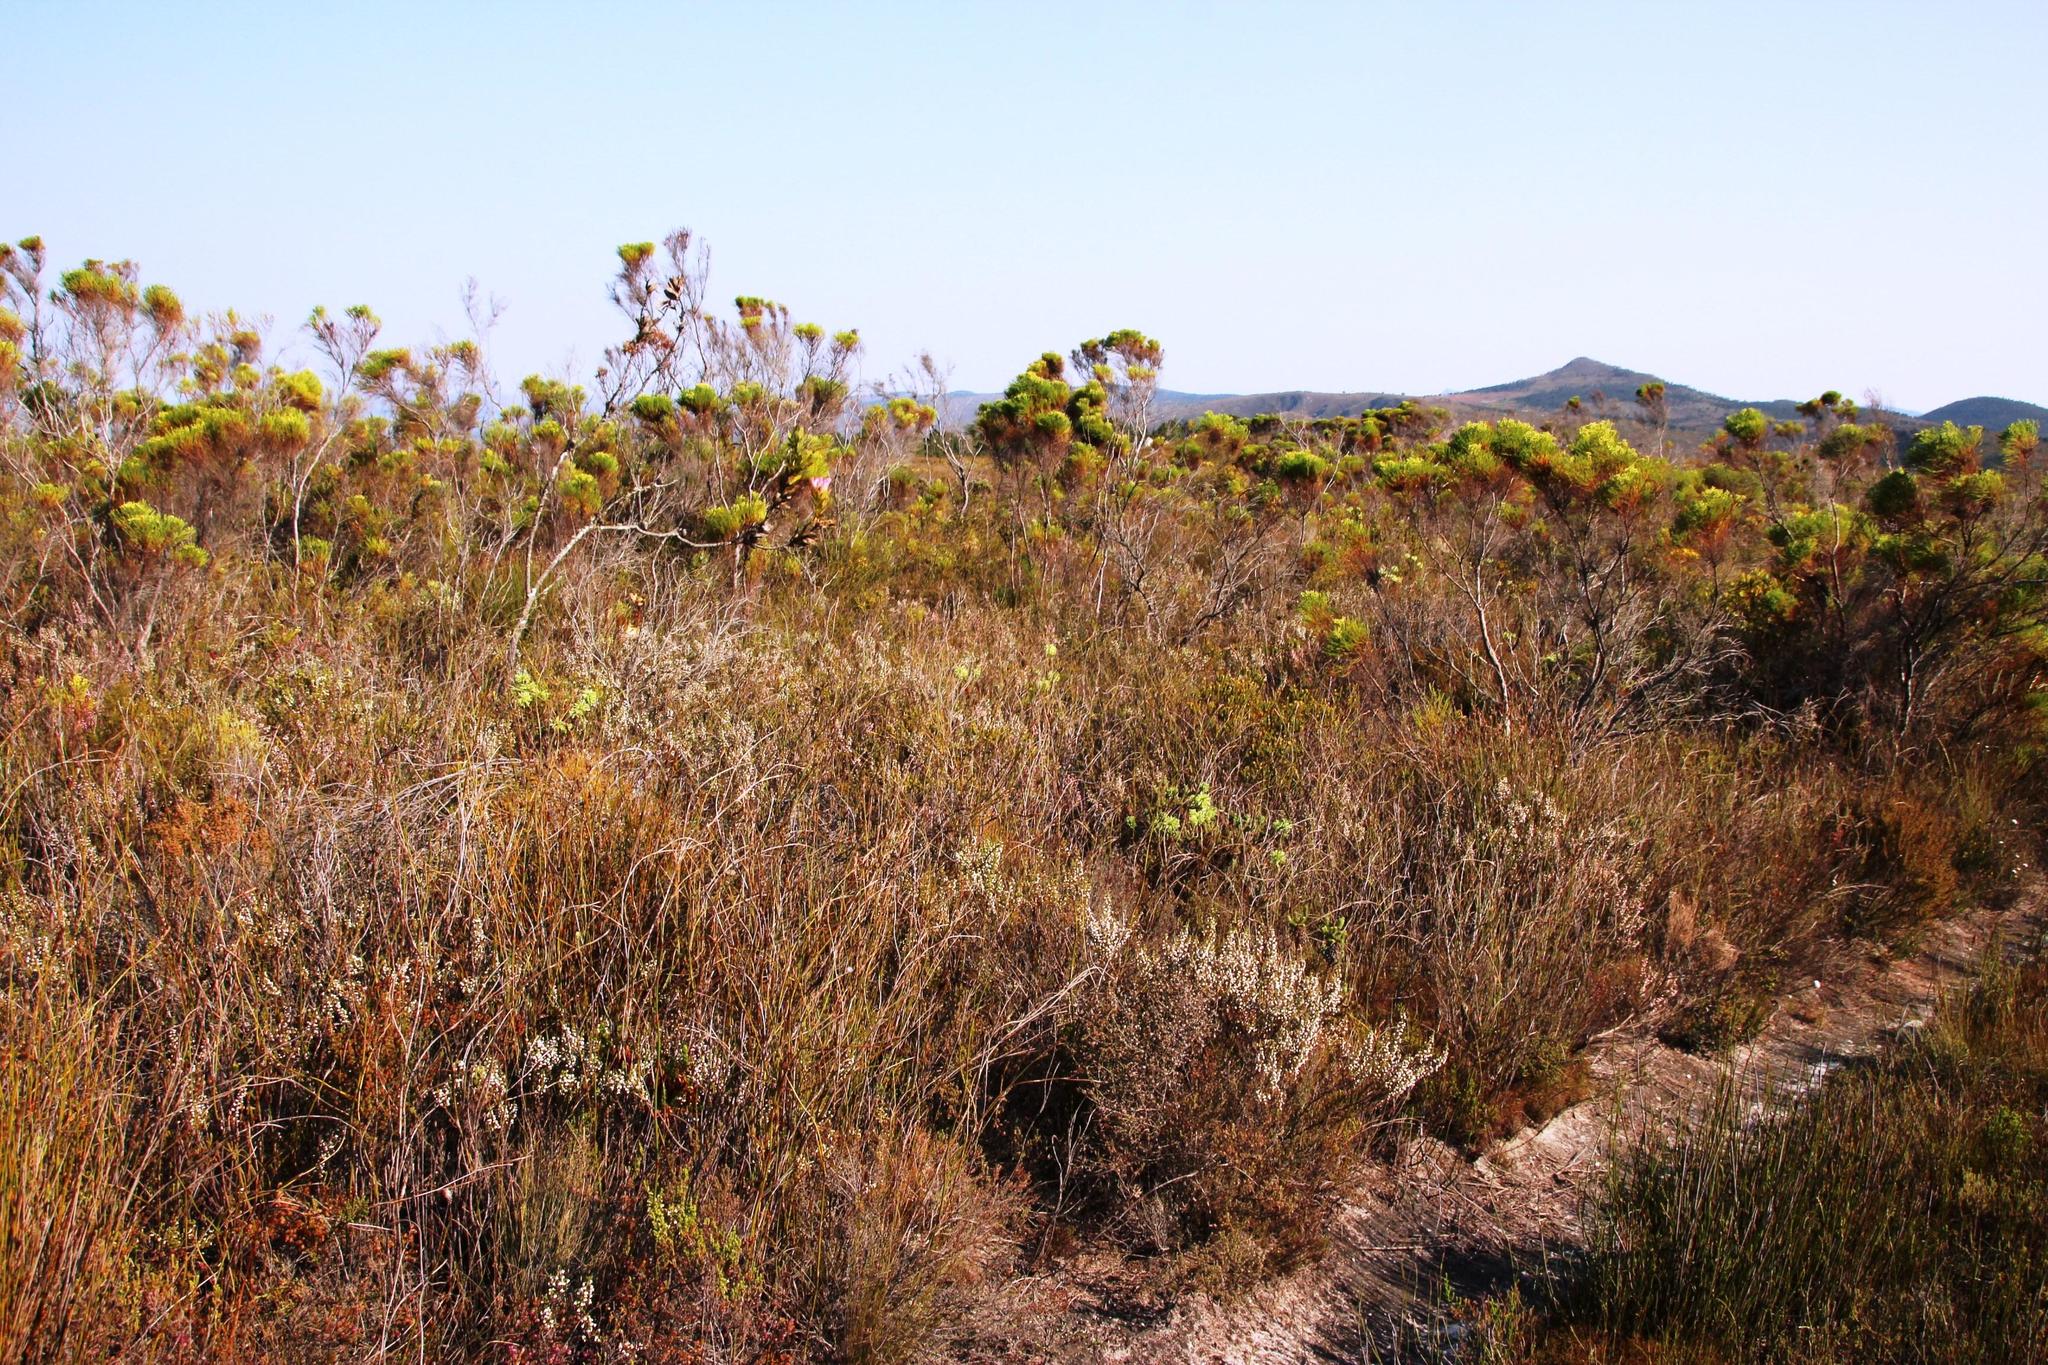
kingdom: Plantae
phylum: Tracheophyta
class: Magnoliopsida
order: Ericales
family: Ericaceae
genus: Erica
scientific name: Erica imbricata
